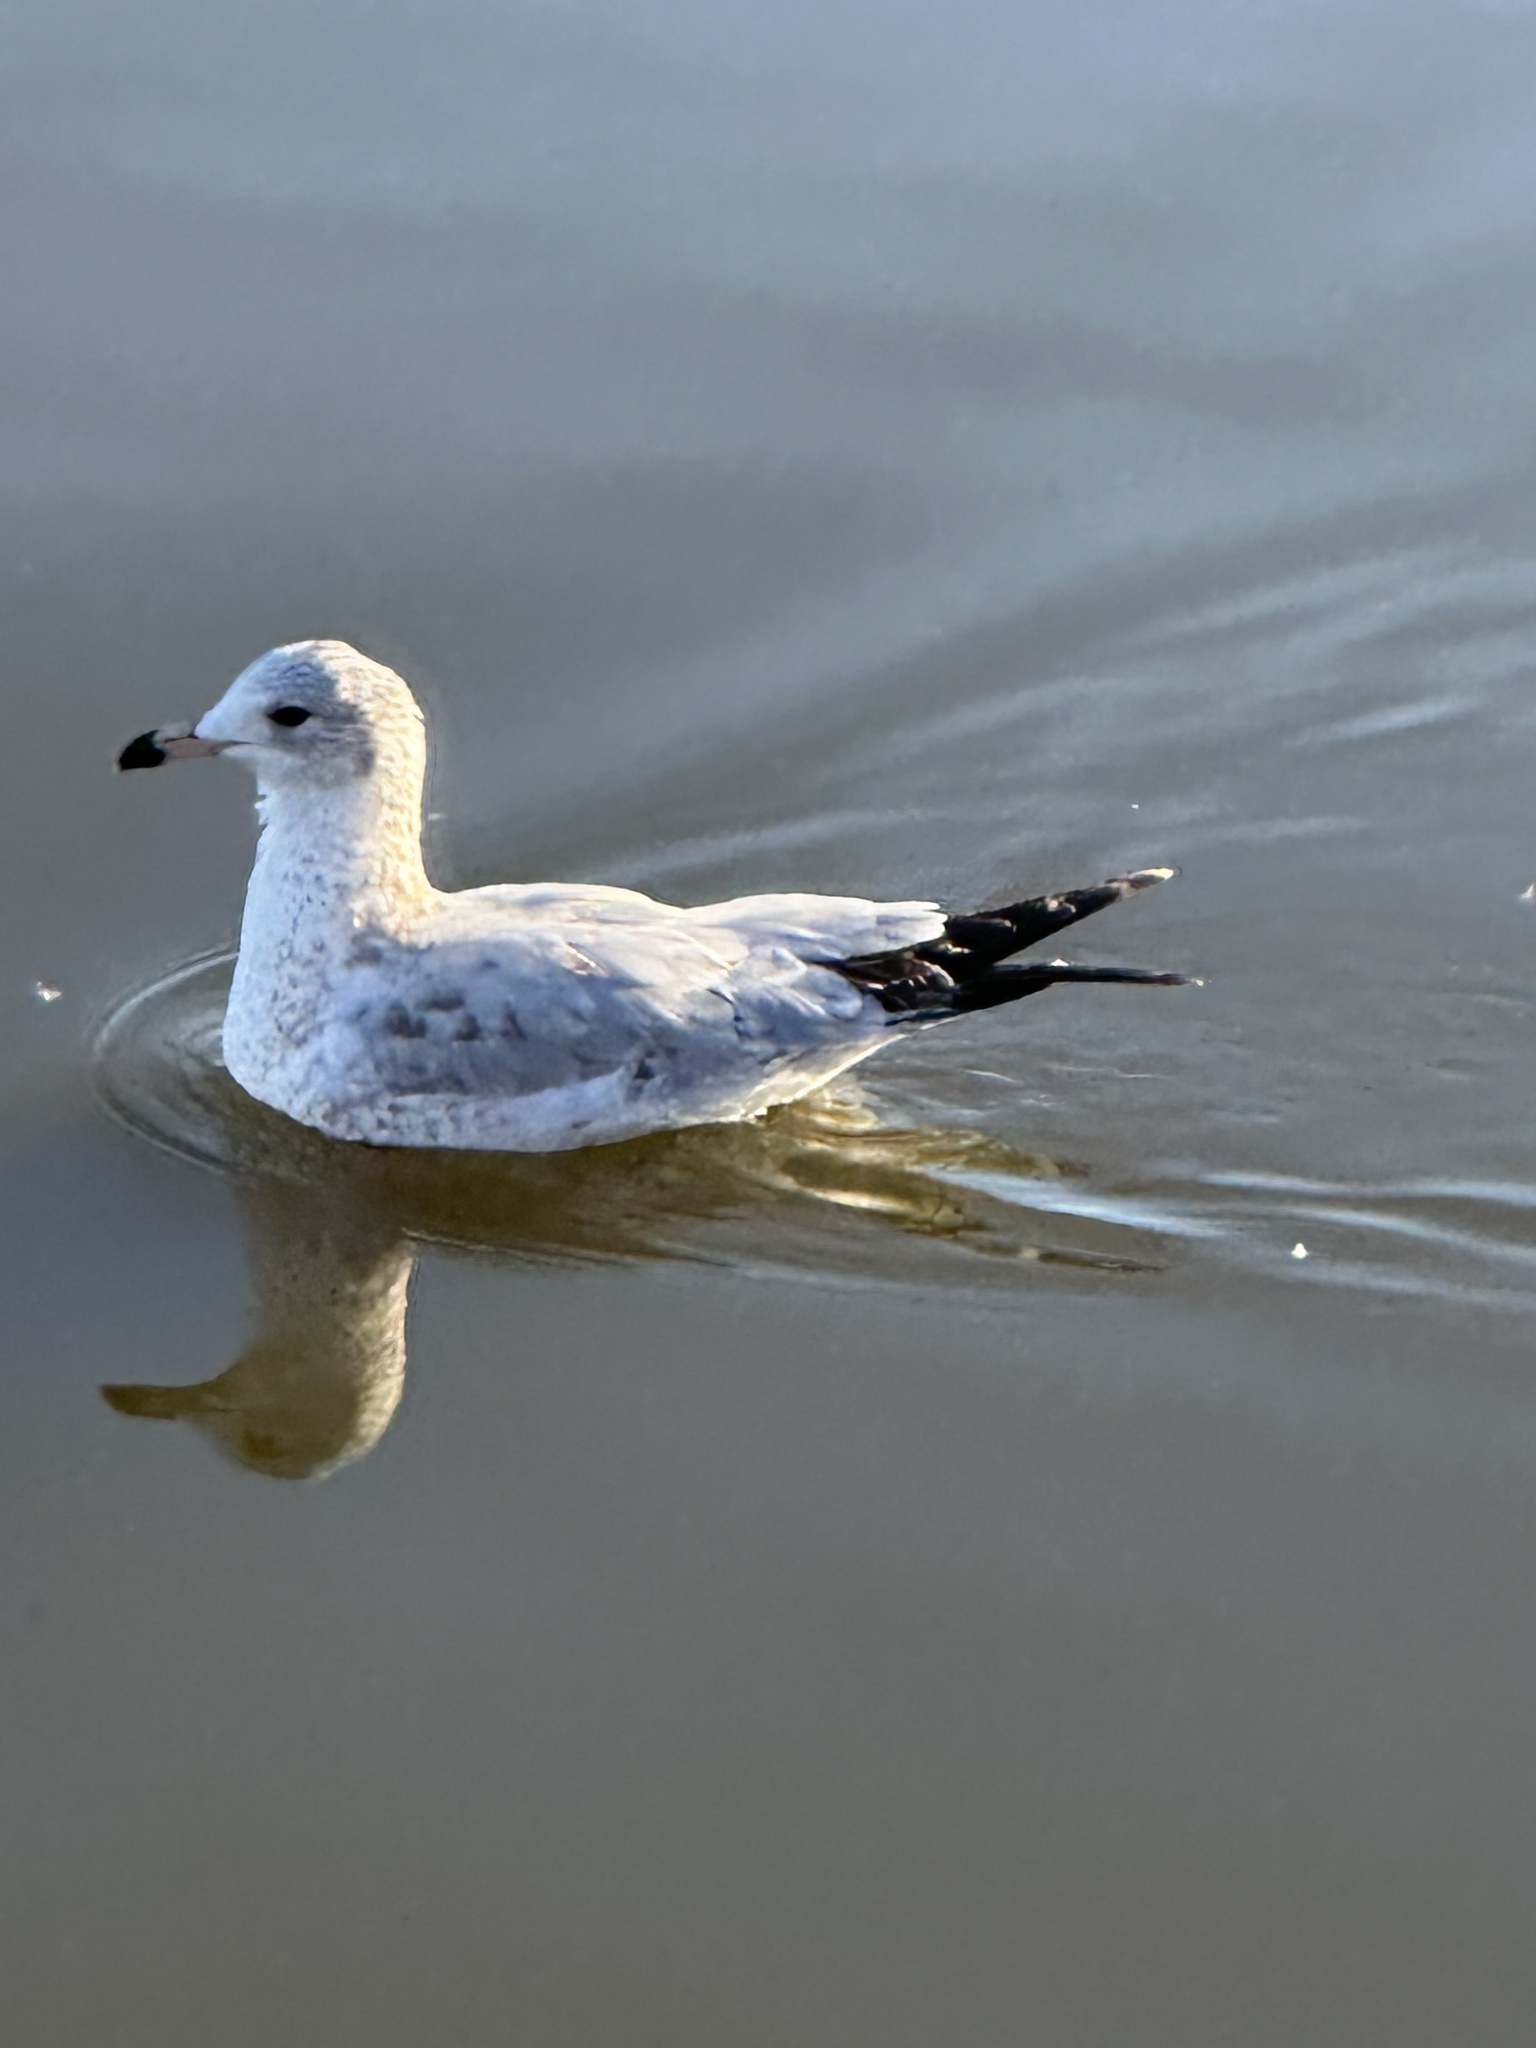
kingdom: Animalia
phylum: Chordata
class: Aves
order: Charadriiformes
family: Laridae
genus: Larus
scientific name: Larus delawarensis
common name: Ring-billed gull
